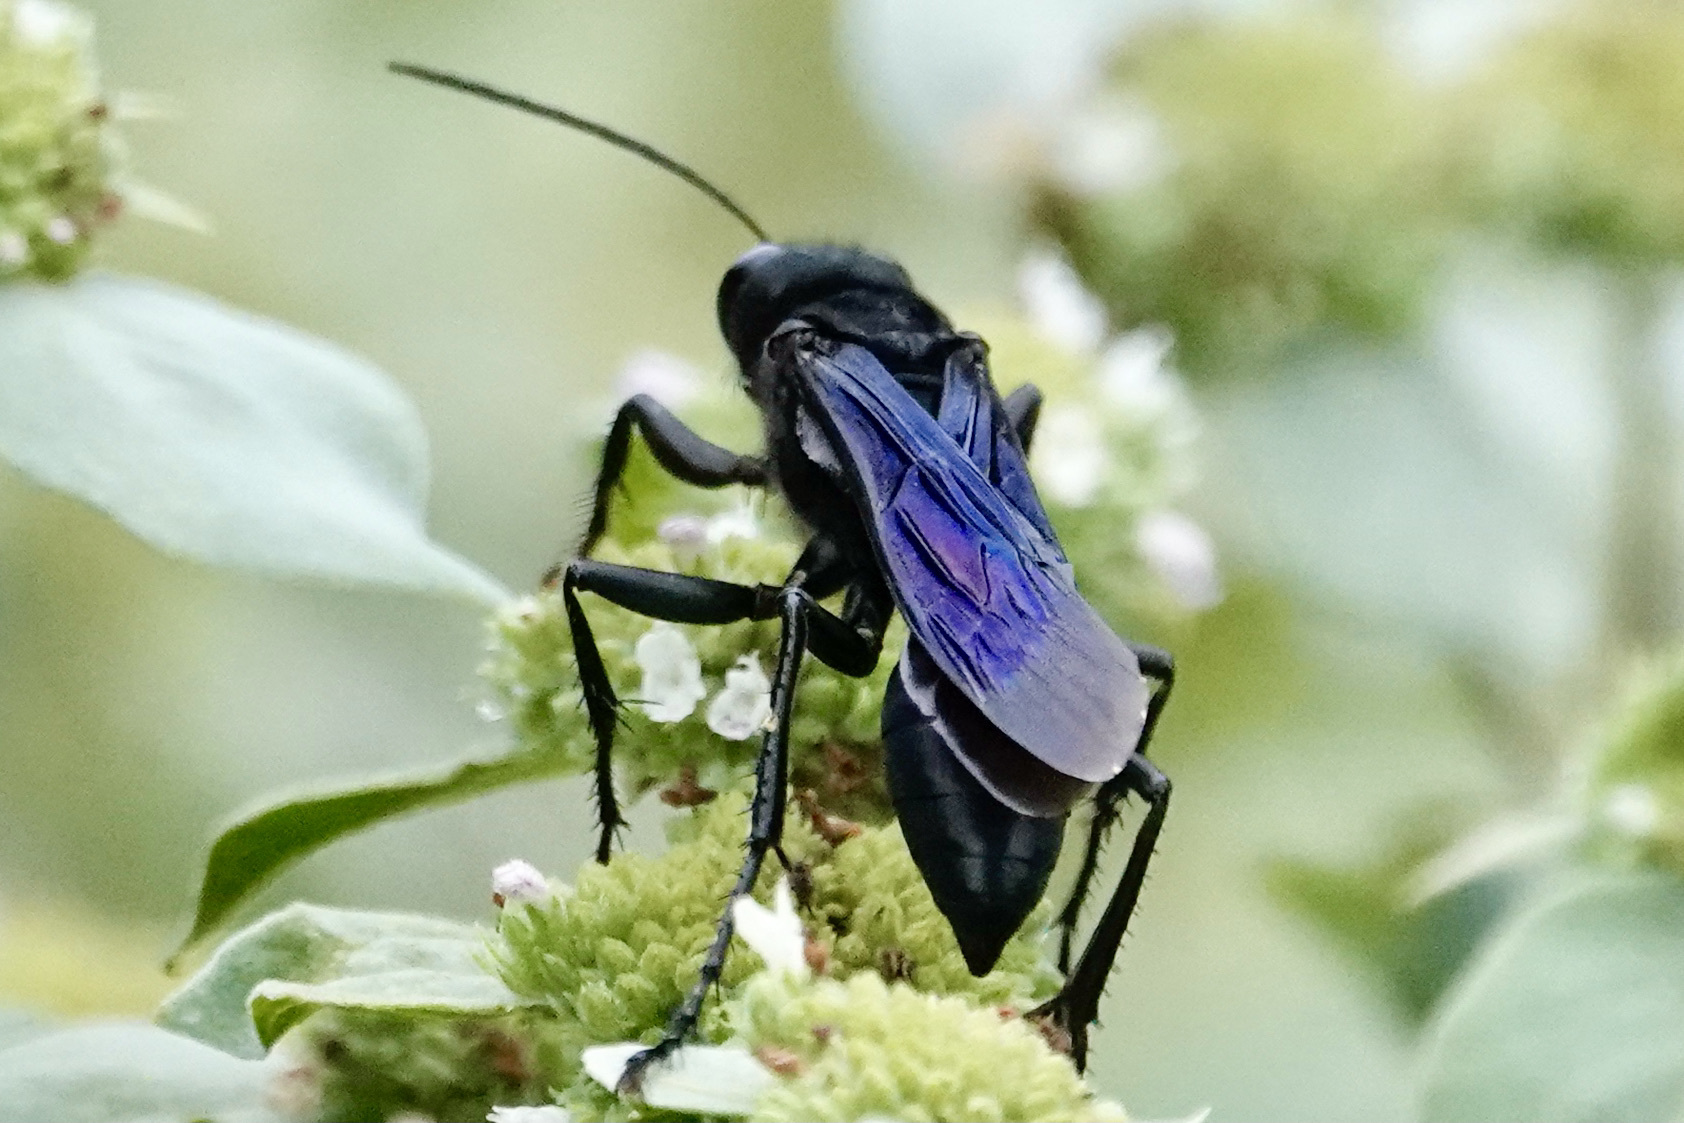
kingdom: Animalia
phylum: Arthropoda
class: Insecta
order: Hymenoptera
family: Sphecidae
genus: Sphex
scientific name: Sphex pensylvanicus
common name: Great black digger wasp
